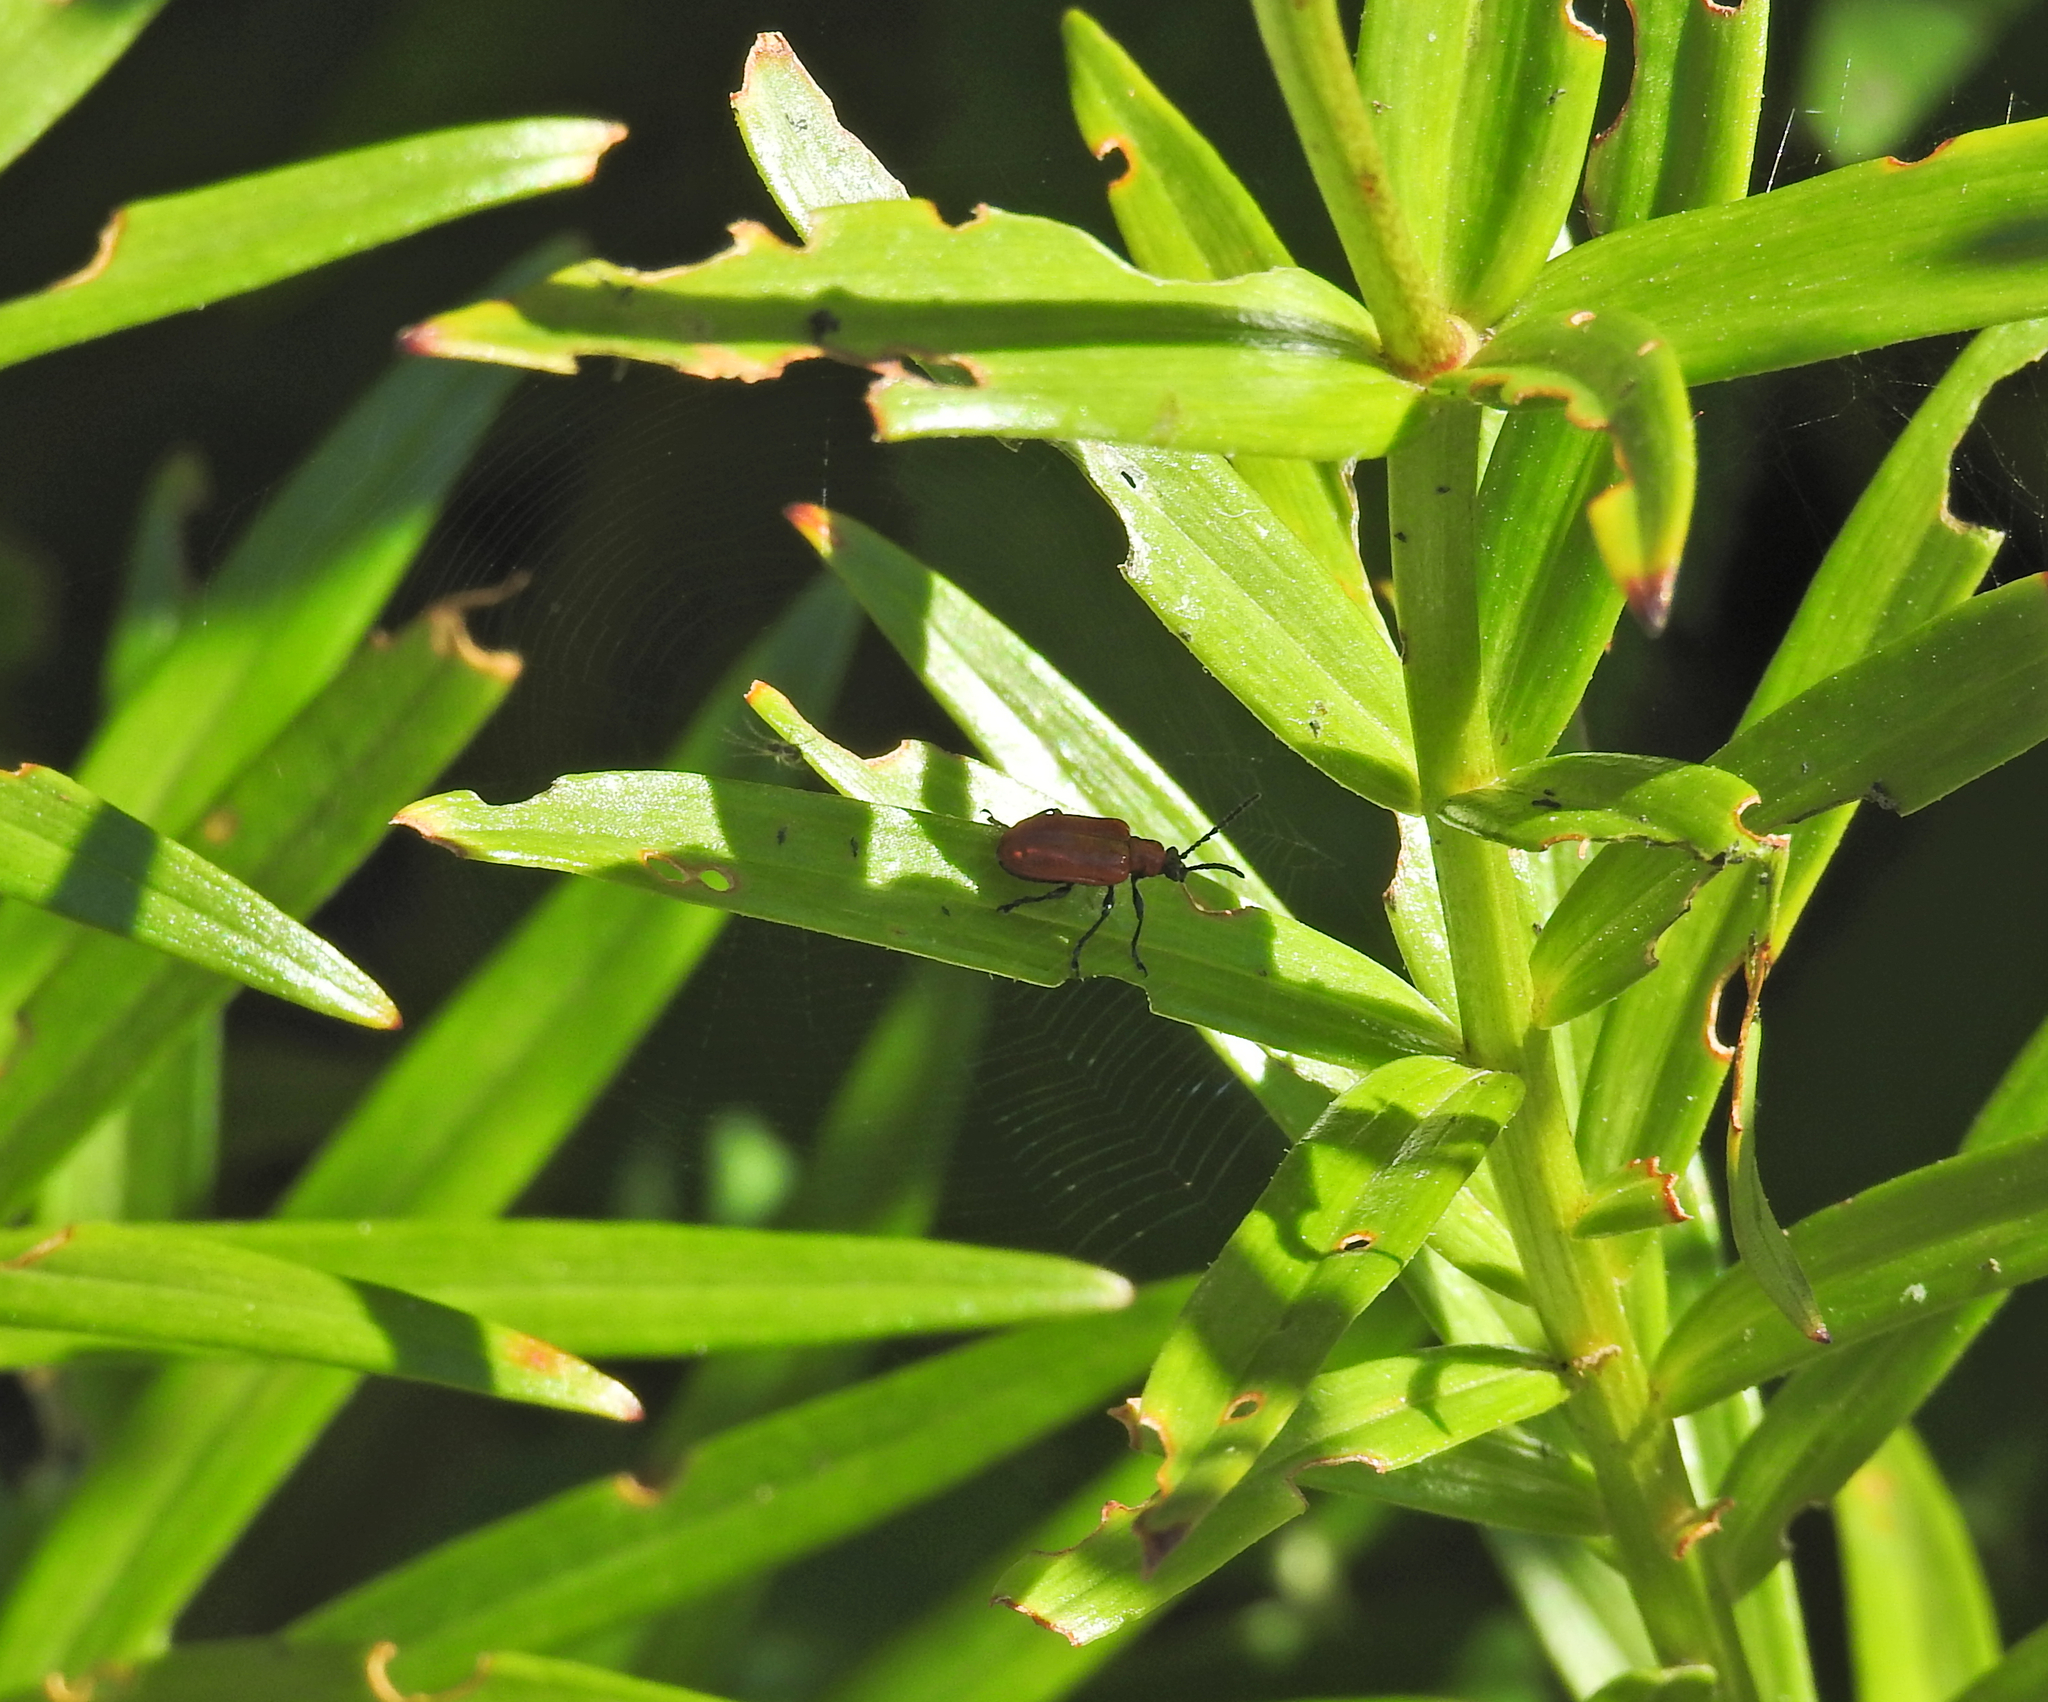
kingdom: Animalia
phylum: Arthropoda
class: Insecta
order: Coleoptera
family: Chrysomelidae
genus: Lilioceris
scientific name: Lilioceris lilii
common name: Lily beetle
